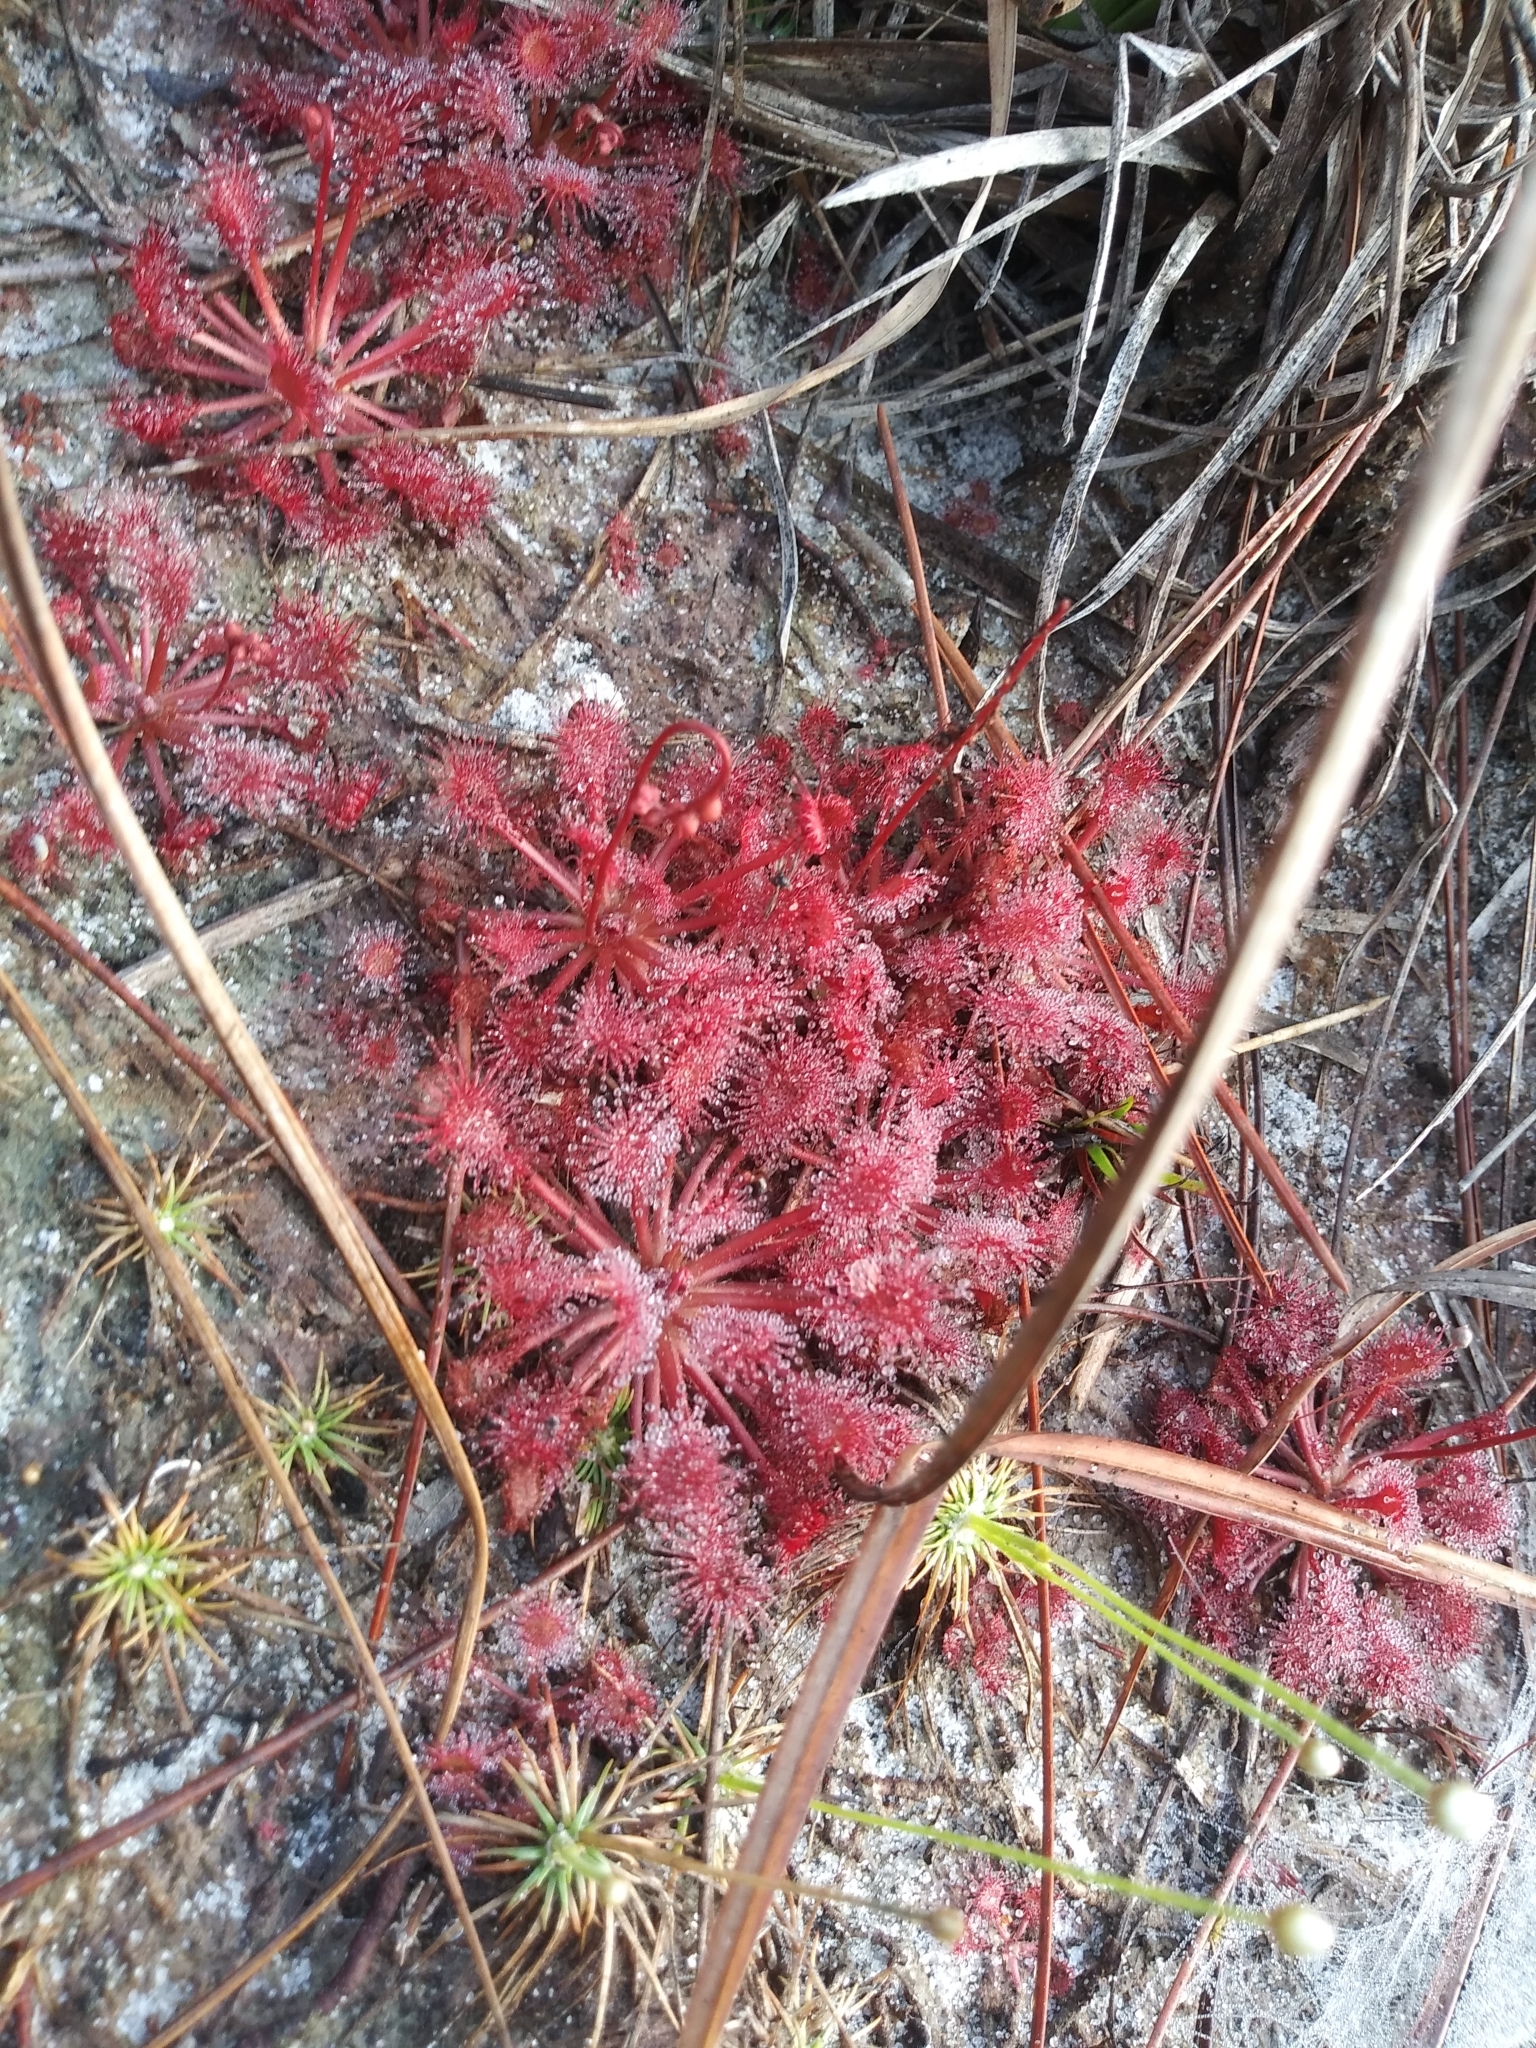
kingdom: Plantae
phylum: Tracheophyta
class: Magnoliopsida
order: Caryophyllales
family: Droseraceae
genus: Drosera
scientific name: Drosera capillaris
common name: Pink sundew
